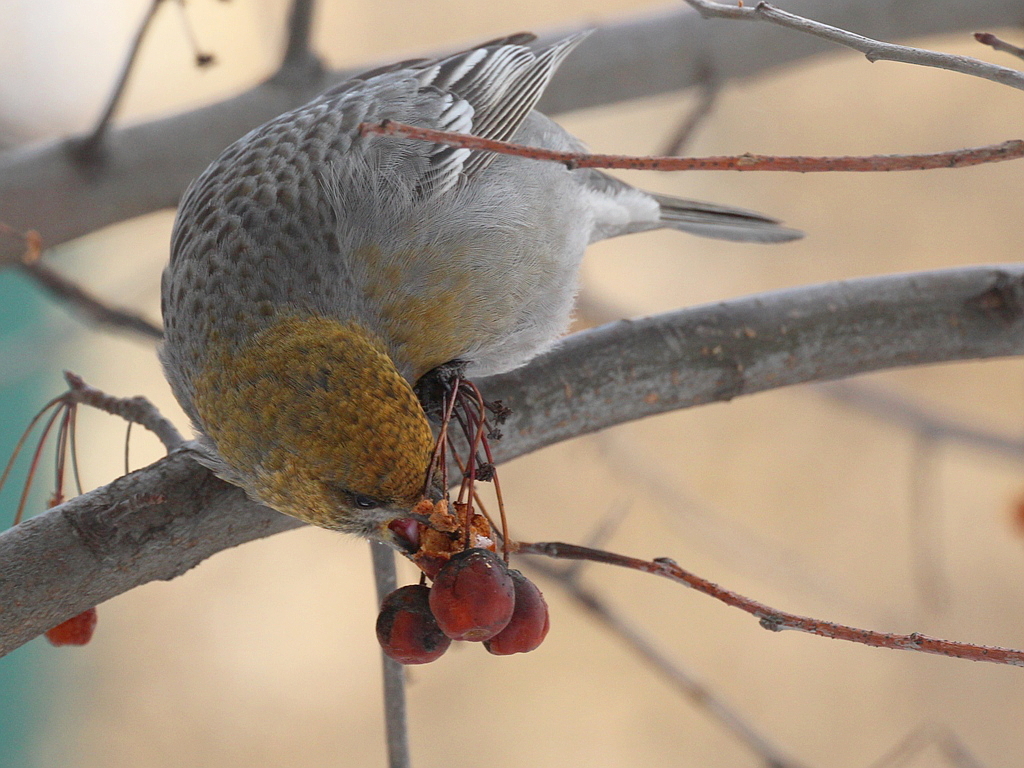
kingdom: Animalia
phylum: Chordata
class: Aves
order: Passeriformes
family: Fringillidae
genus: Pinicola
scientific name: Pinicola enucleator
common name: Pine grosbeak
